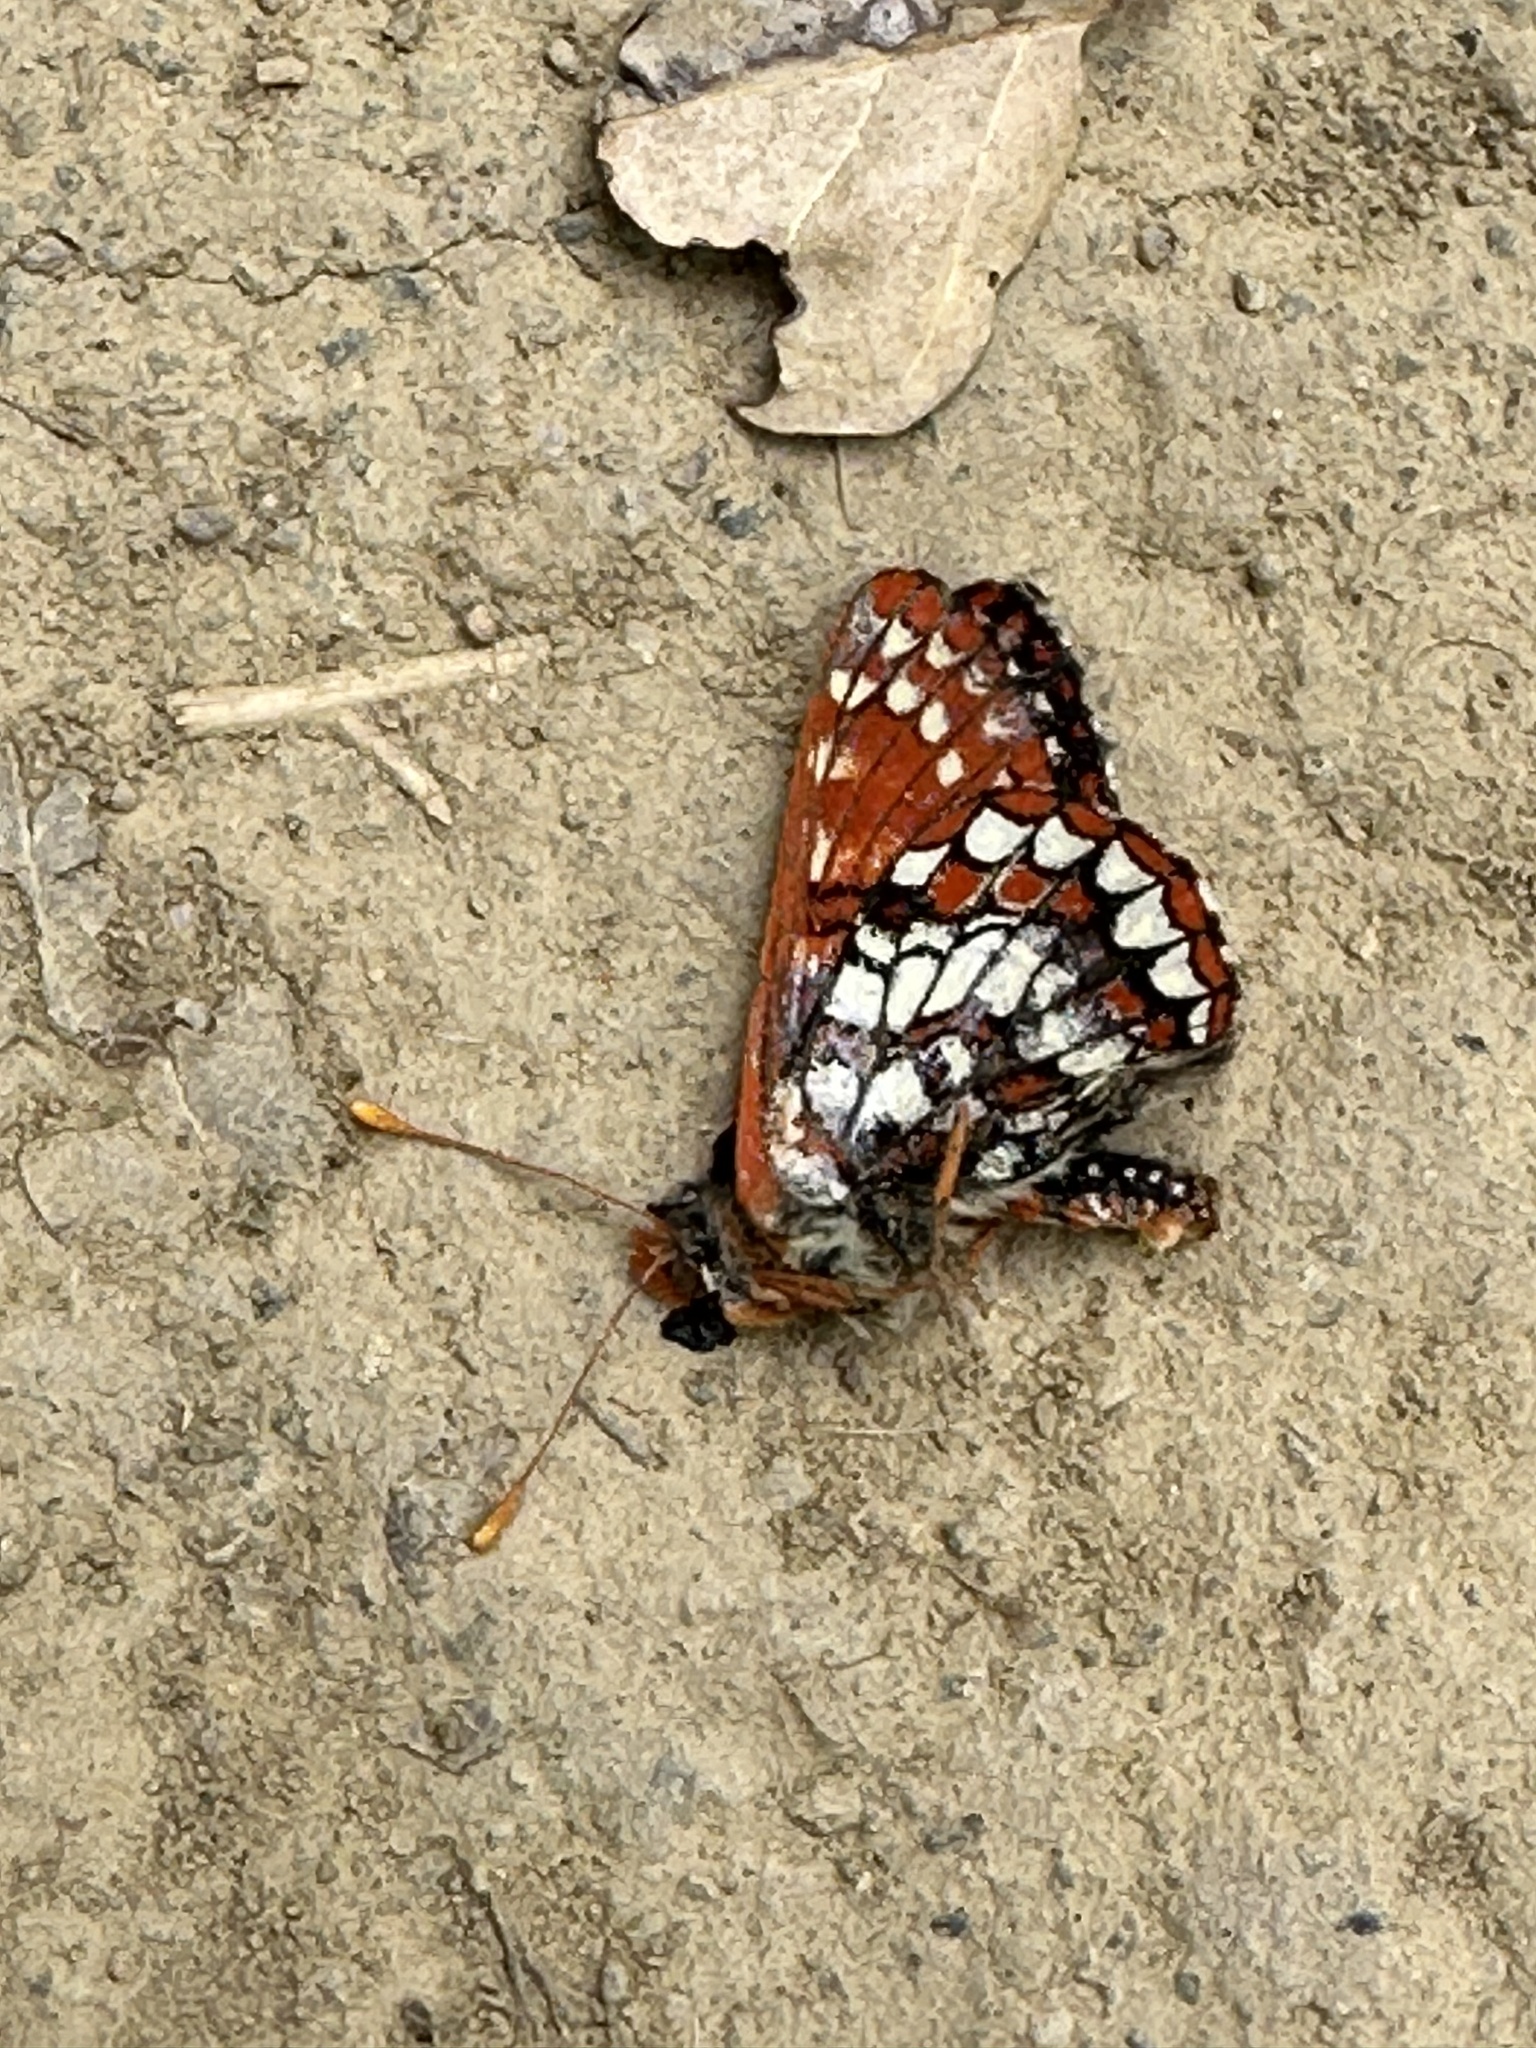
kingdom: Animalia
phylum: Arthropoda
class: Insecta
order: Lepidoptera
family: Nymphalidae
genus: Occidryas
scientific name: Occidryas chalcedona
